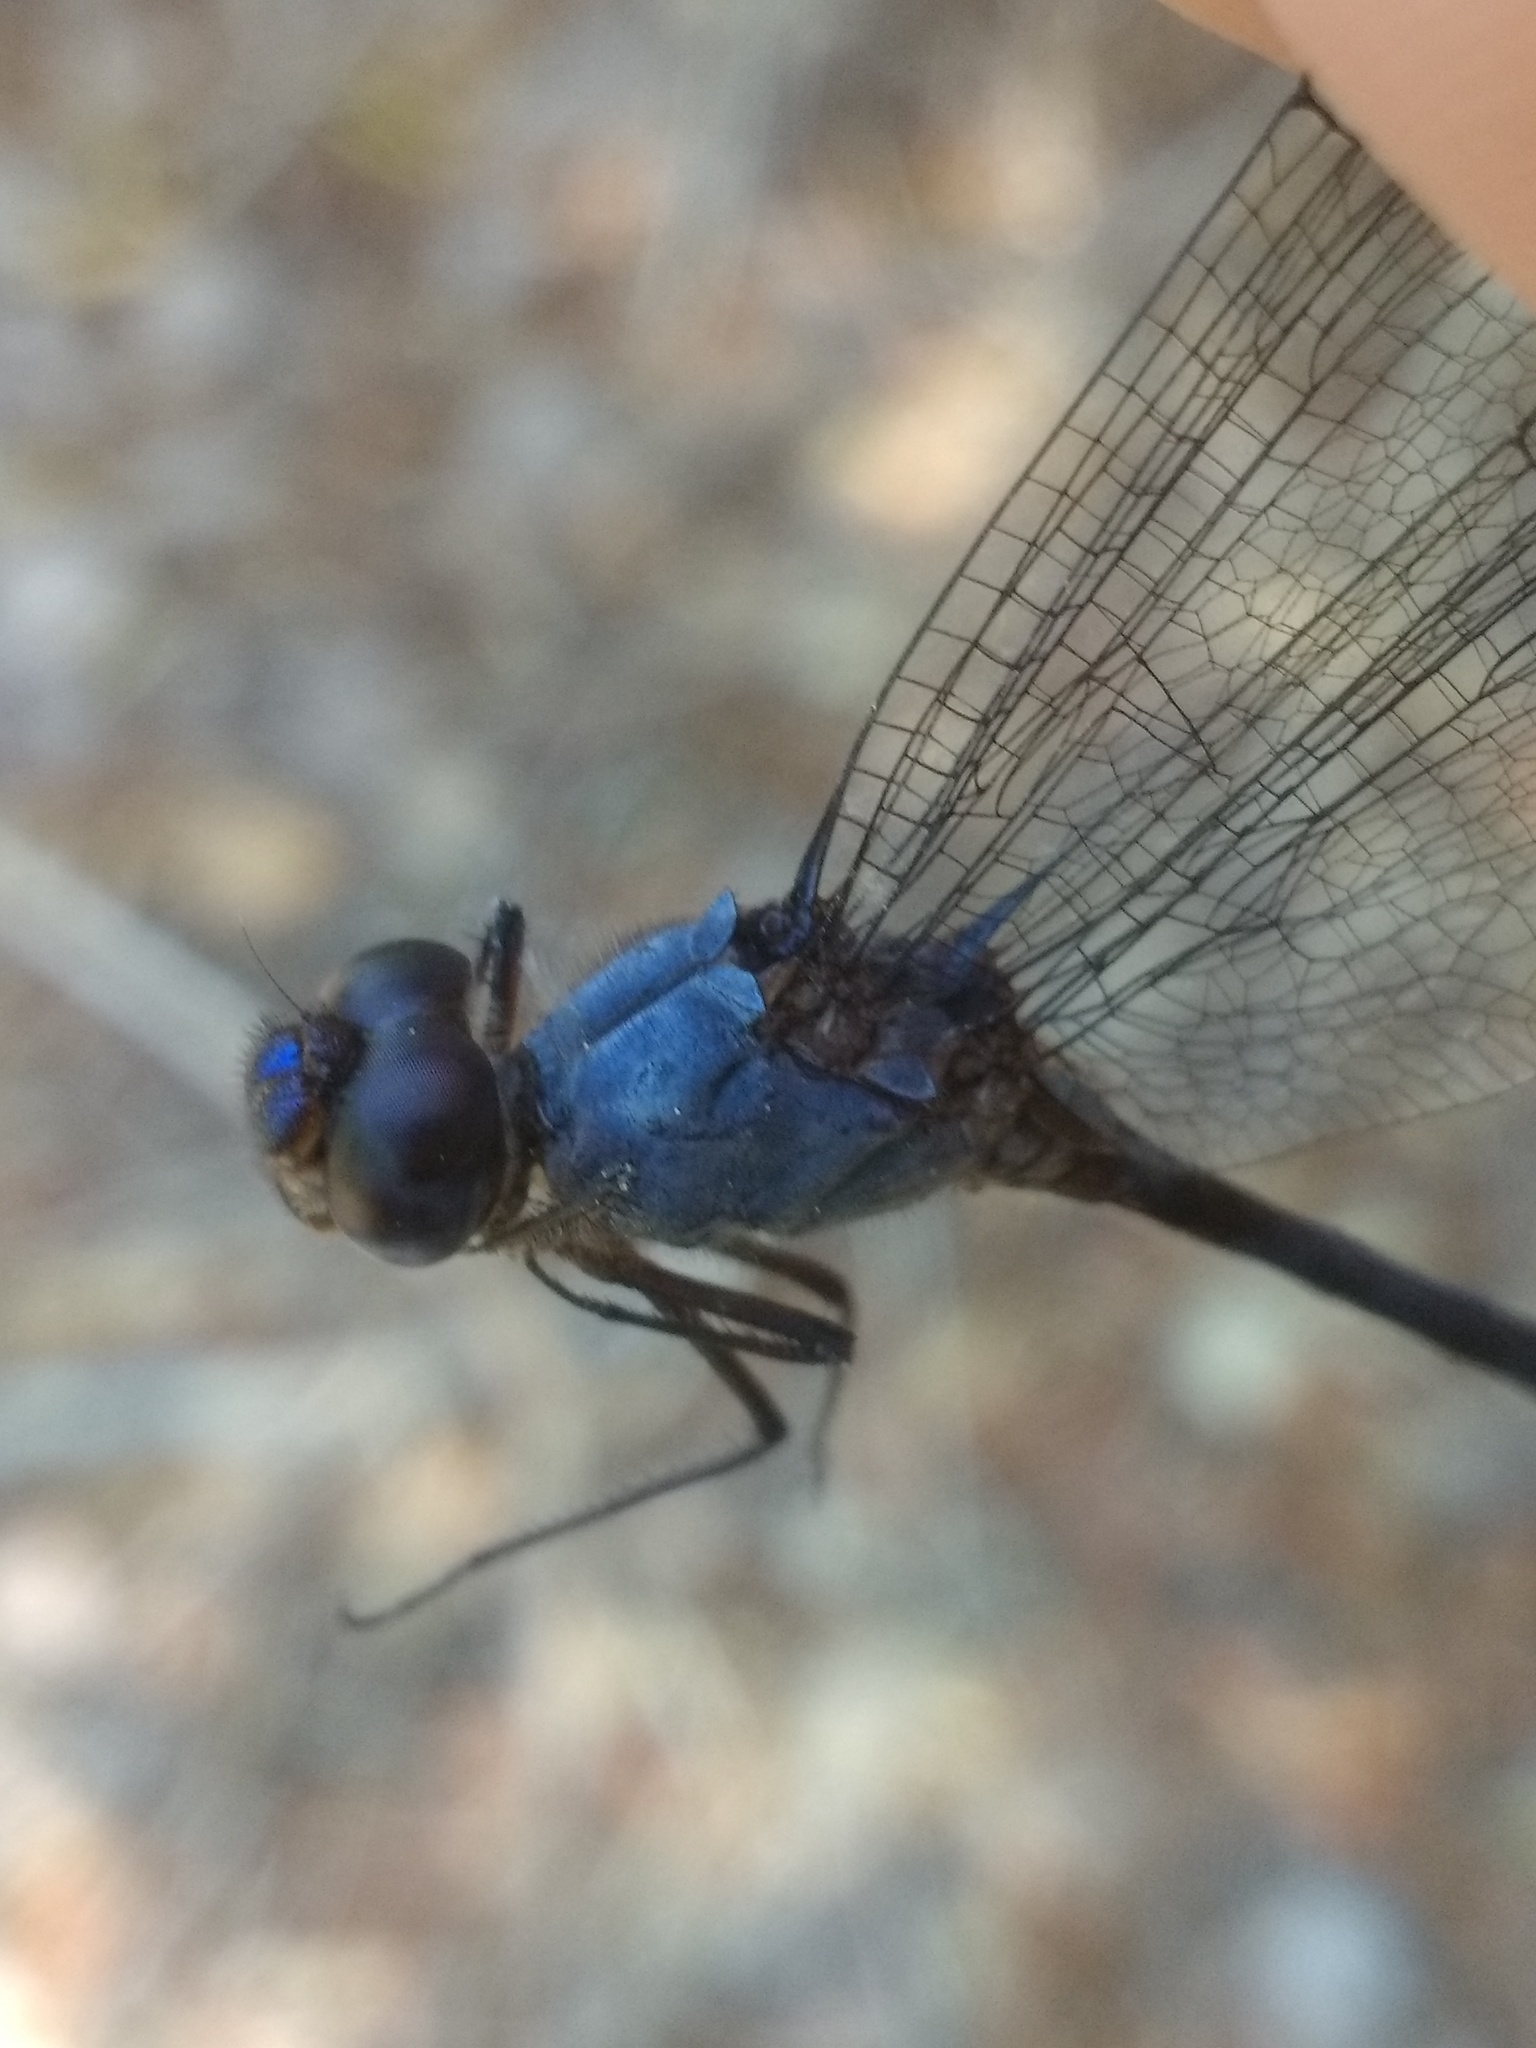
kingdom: Animalia
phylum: Arthropoda
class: Insecta
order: Odonata
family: Libellulidae
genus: Dythemis
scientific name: Dythemis nigrescens
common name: Black setwing
